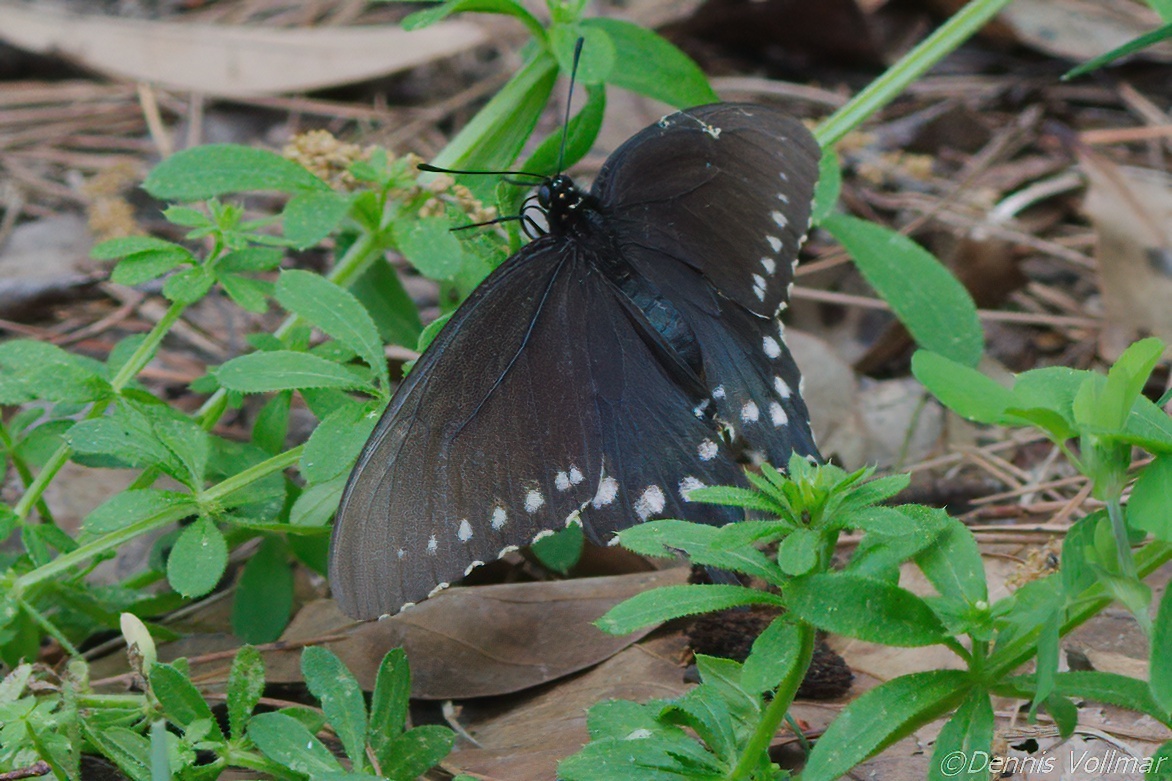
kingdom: Animalia
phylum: Arthropoda
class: Insecta
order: Lepidoptera
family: Papilionidae
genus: Battus
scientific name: Battus philenor
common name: Pipevine swallowtail
